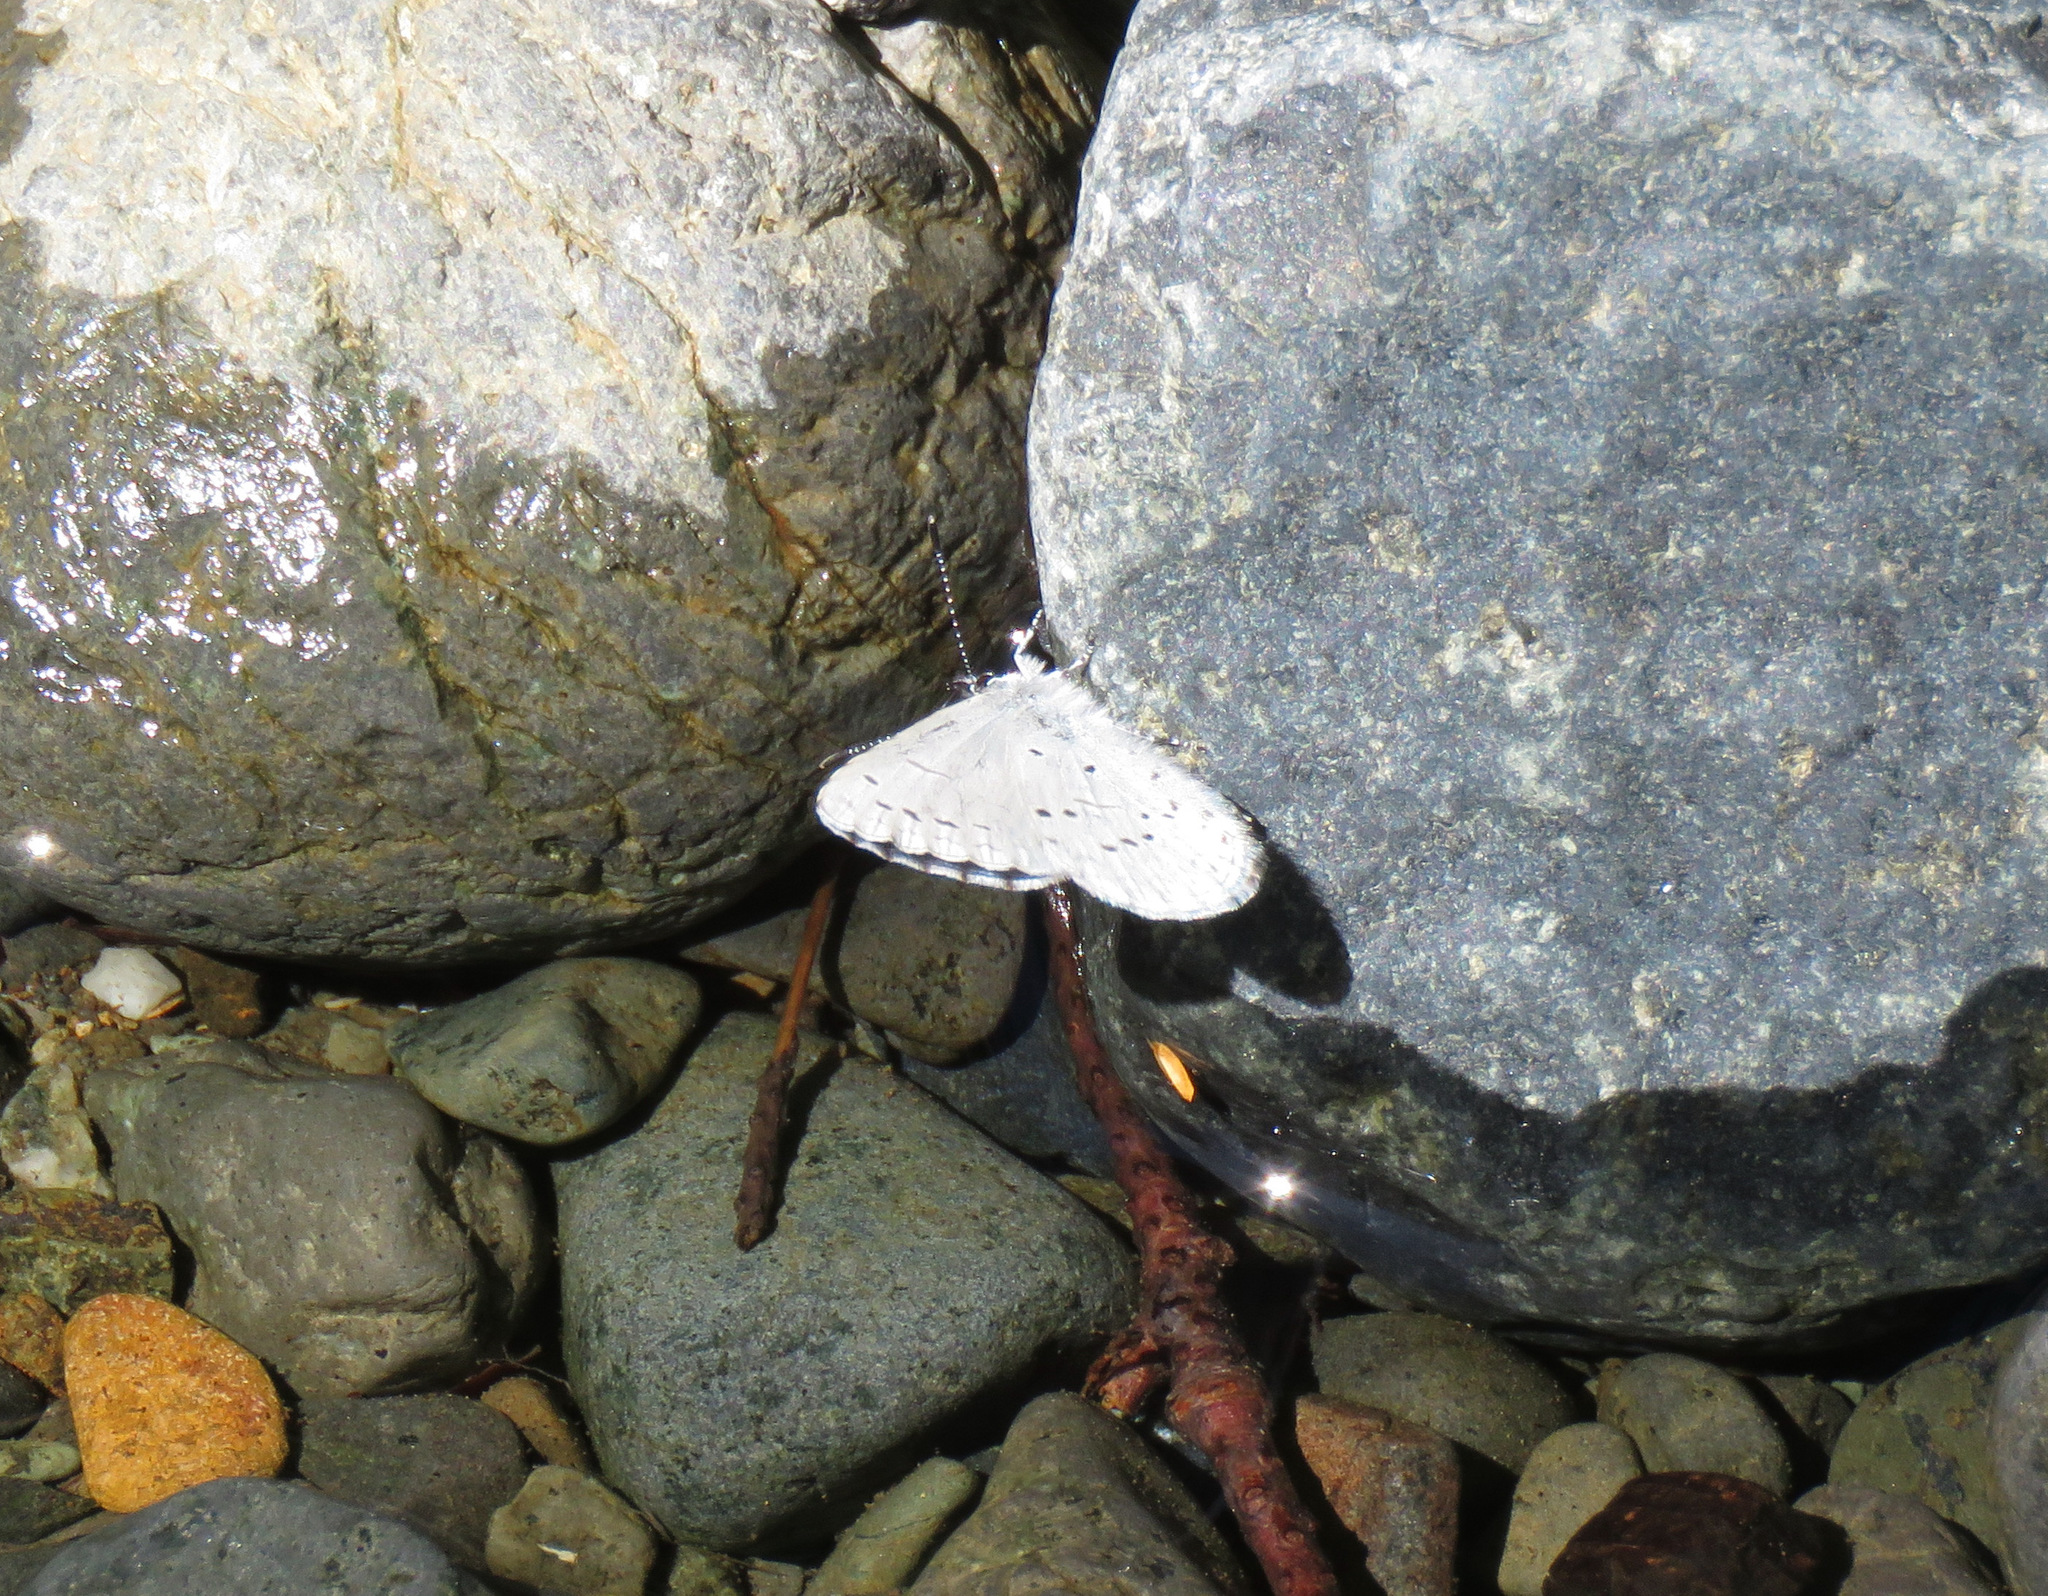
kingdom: Animalia
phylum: Arthropoda
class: Insecta
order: Lepidoptera
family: Lycaenidae
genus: Celastrina
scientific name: Celastrina ladon
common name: Spring azure
